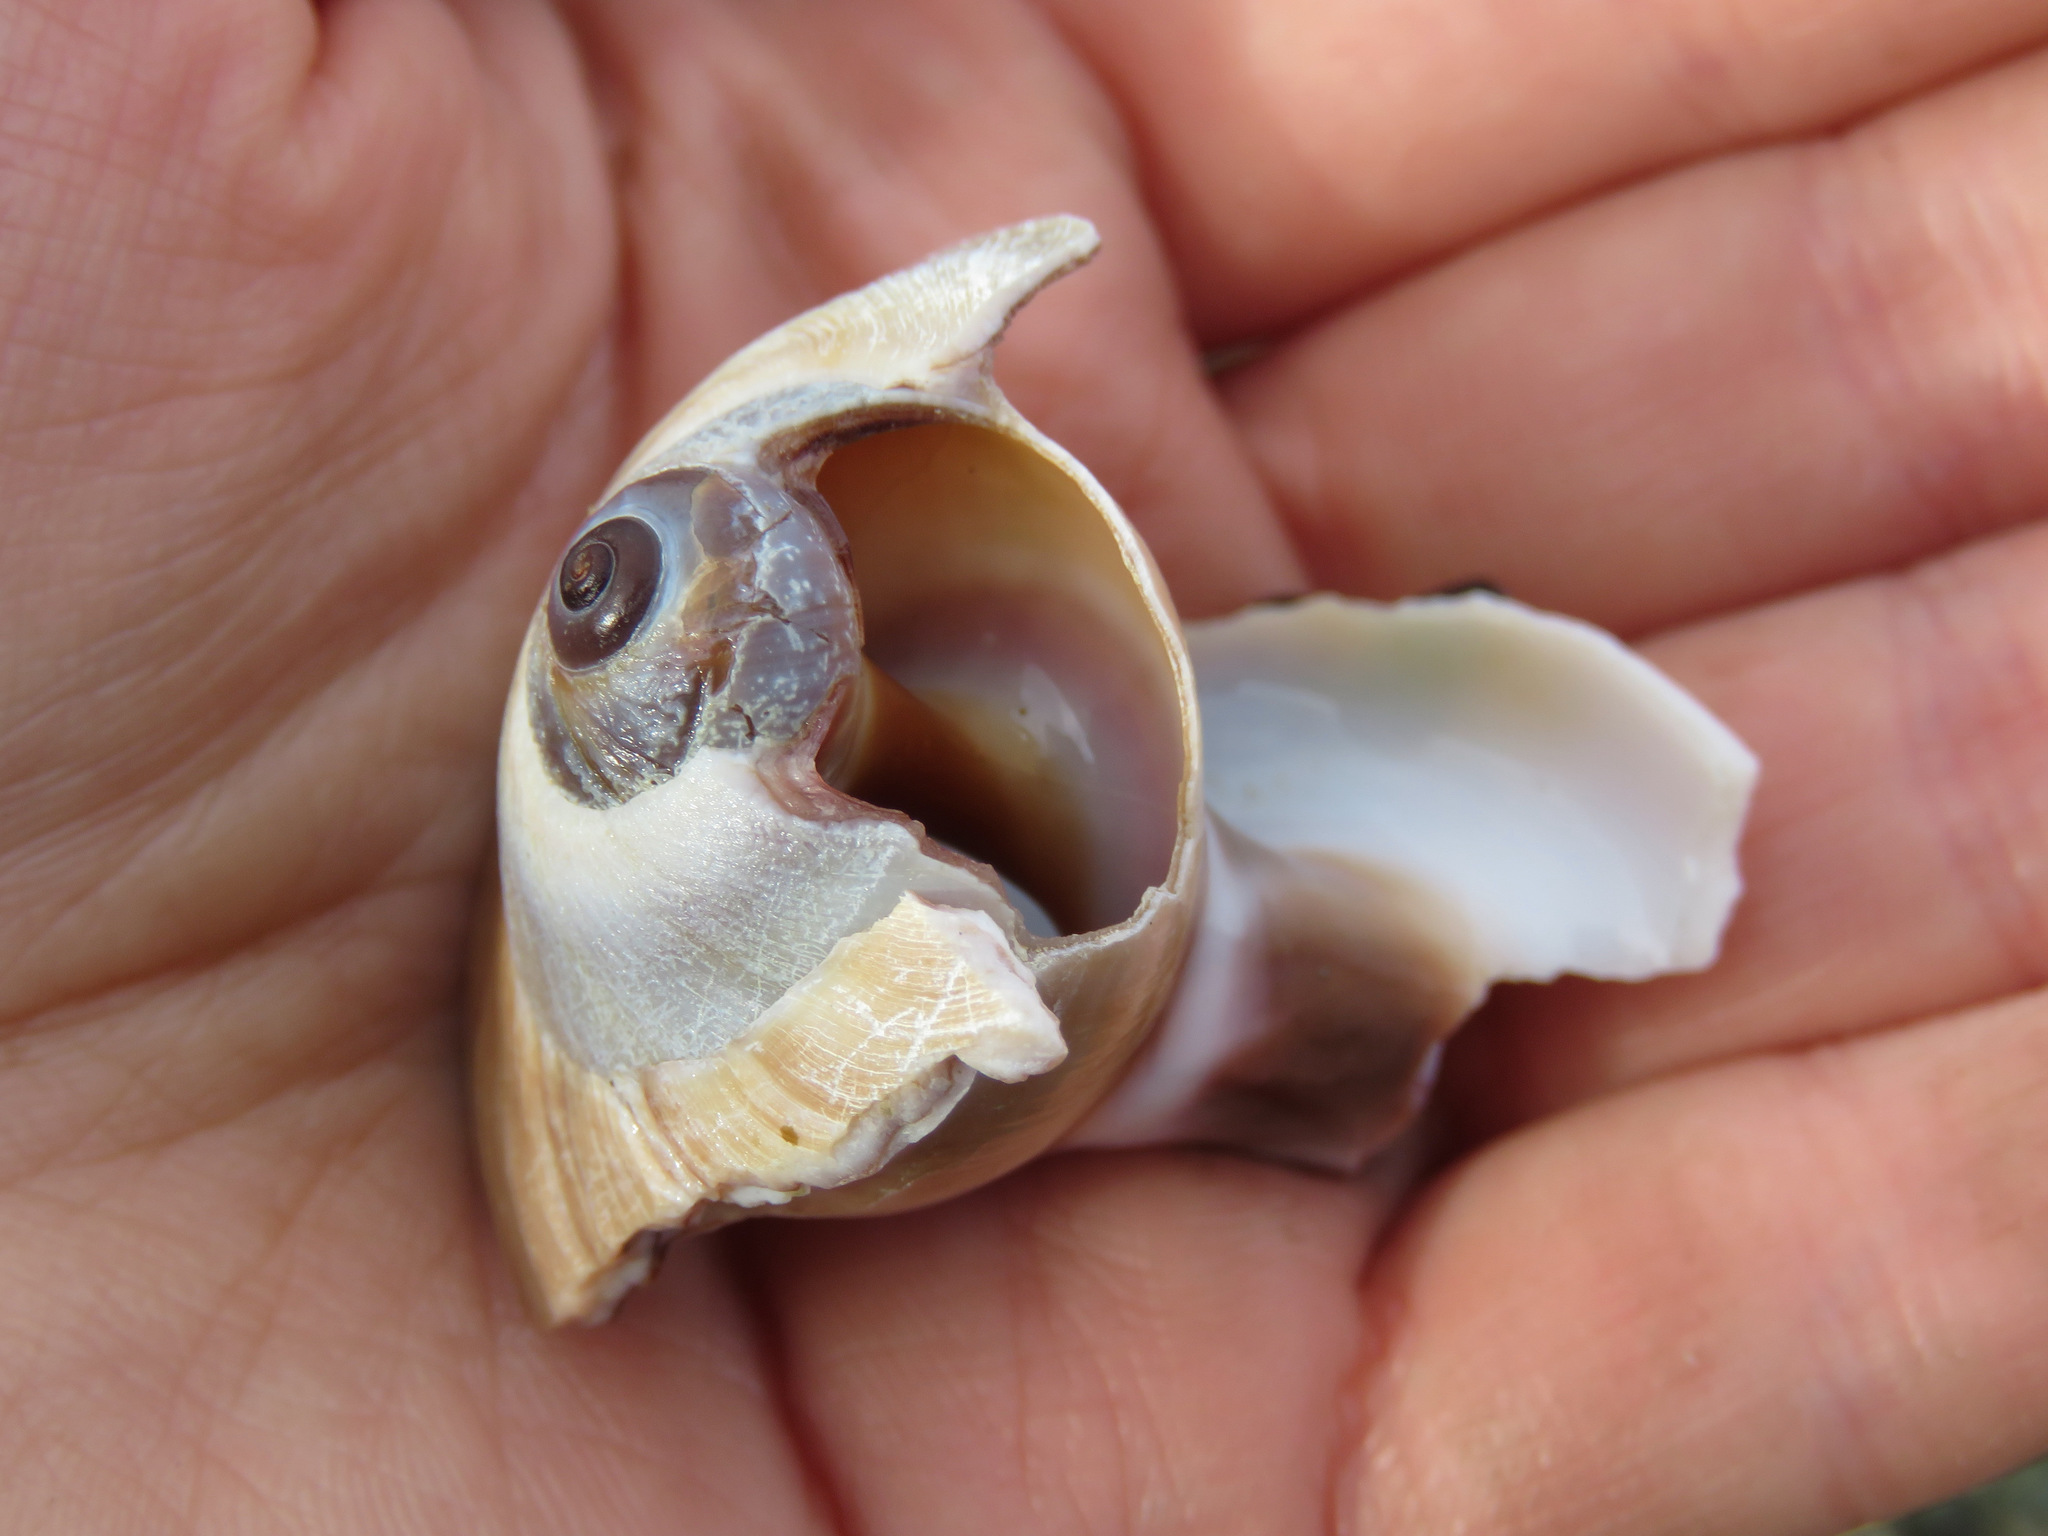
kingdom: Animalia
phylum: Mollusca
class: Gastropoda
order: Littorinimorpha
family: Naticidae
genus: Neverita
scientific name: Neverita lewisii
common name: Lewis' moonsnail
